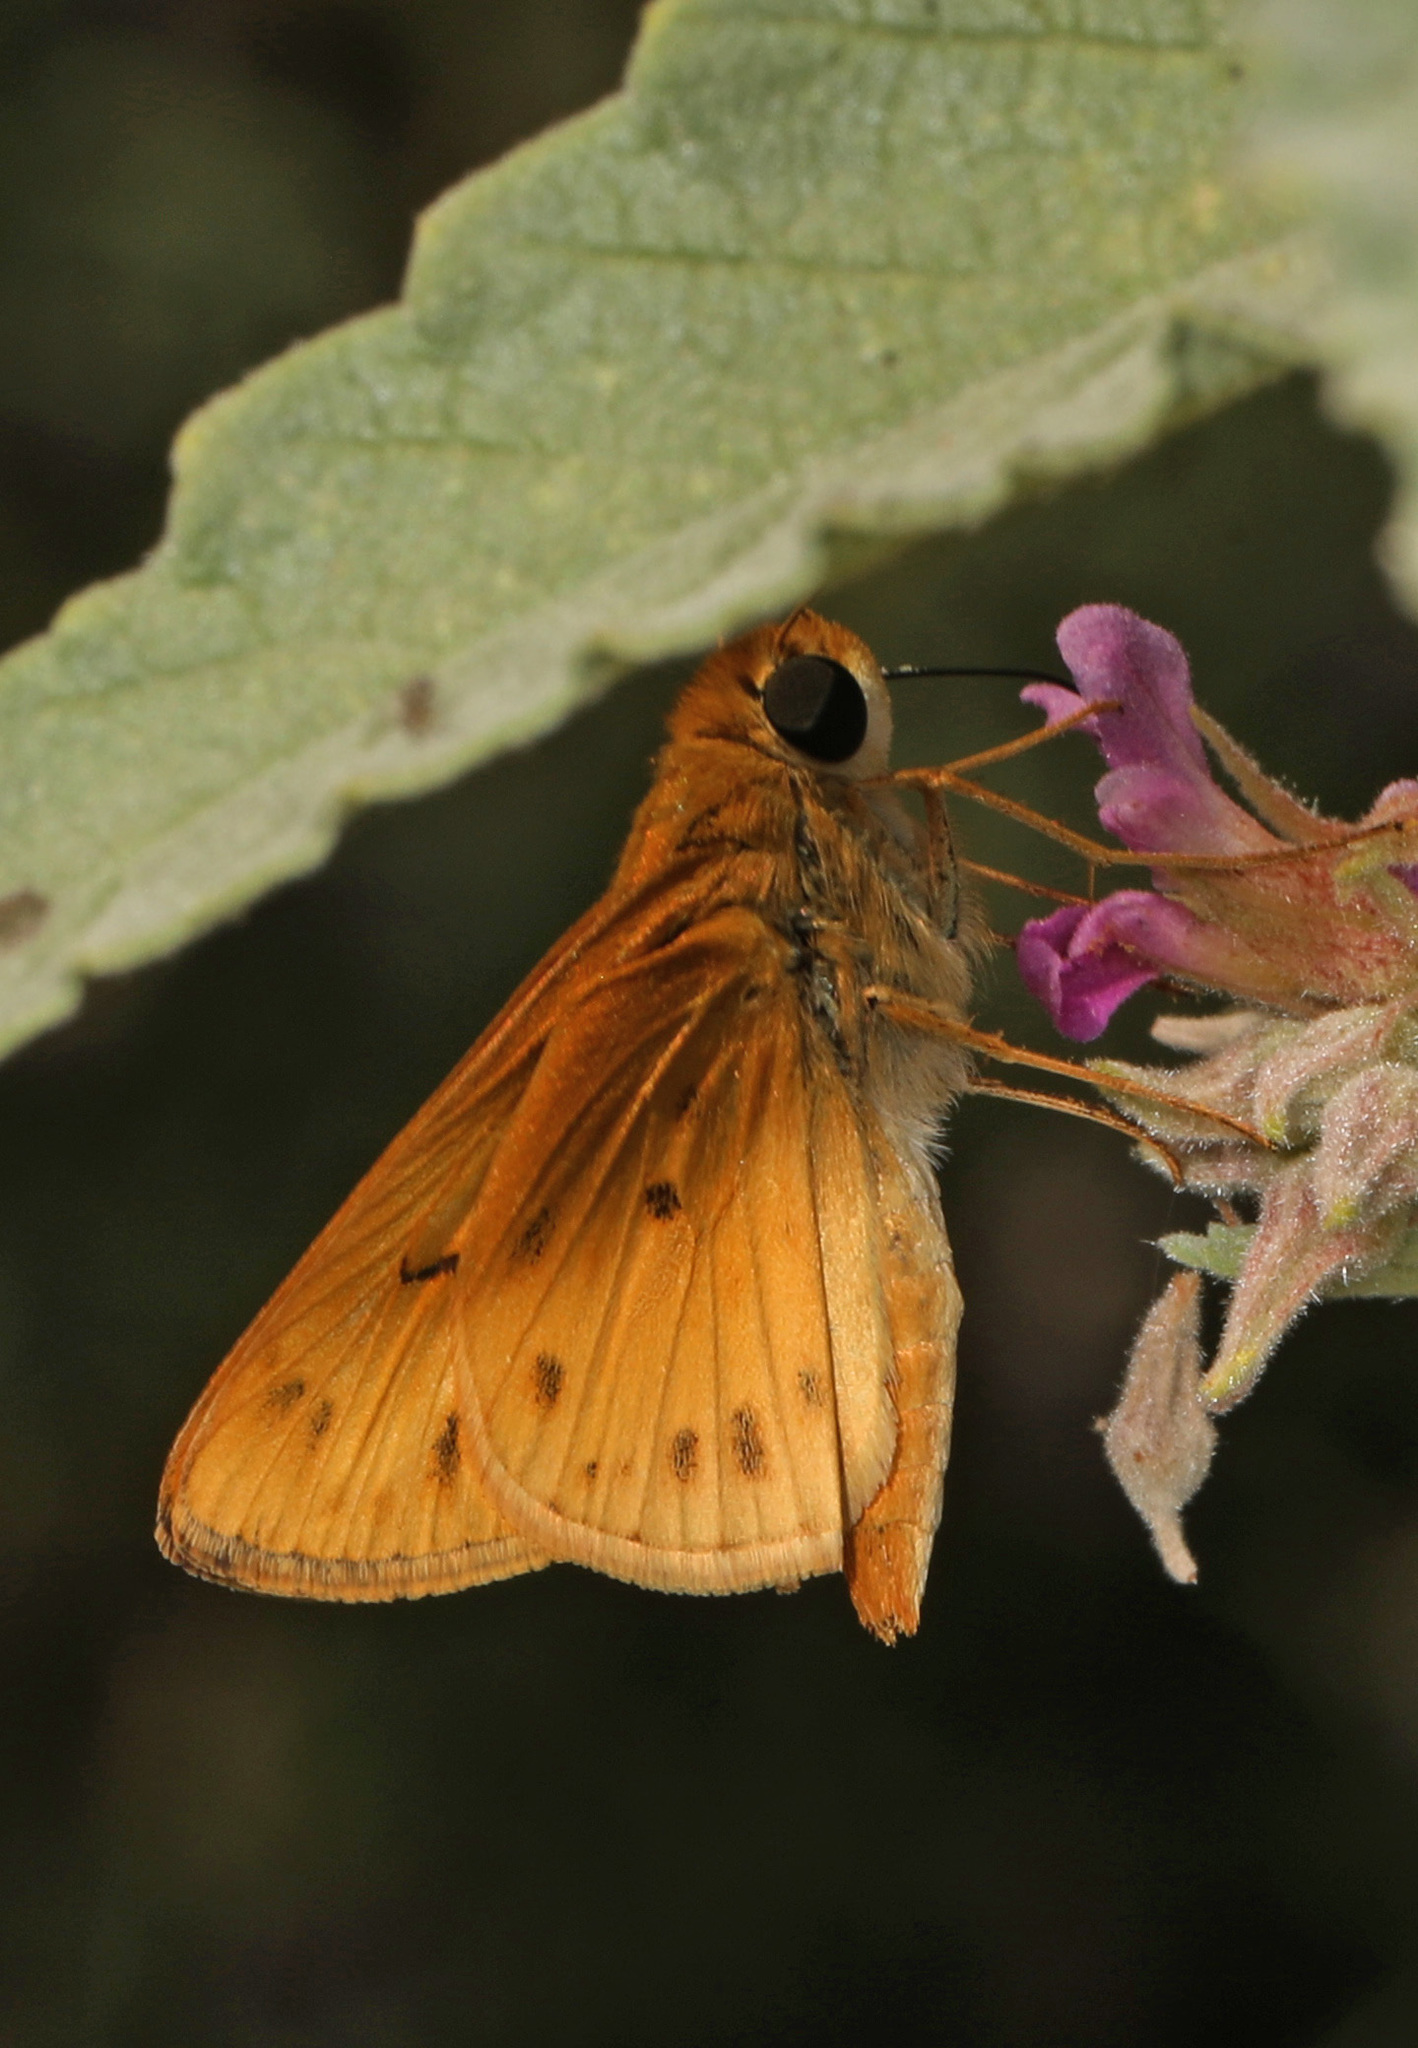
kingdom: Animalia
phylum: Arthropoda
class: Insecta
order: Lepidoptera
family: Hesperiidae
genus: Hylephila
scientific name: Hylephila phyleus
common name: Fiery skipper
